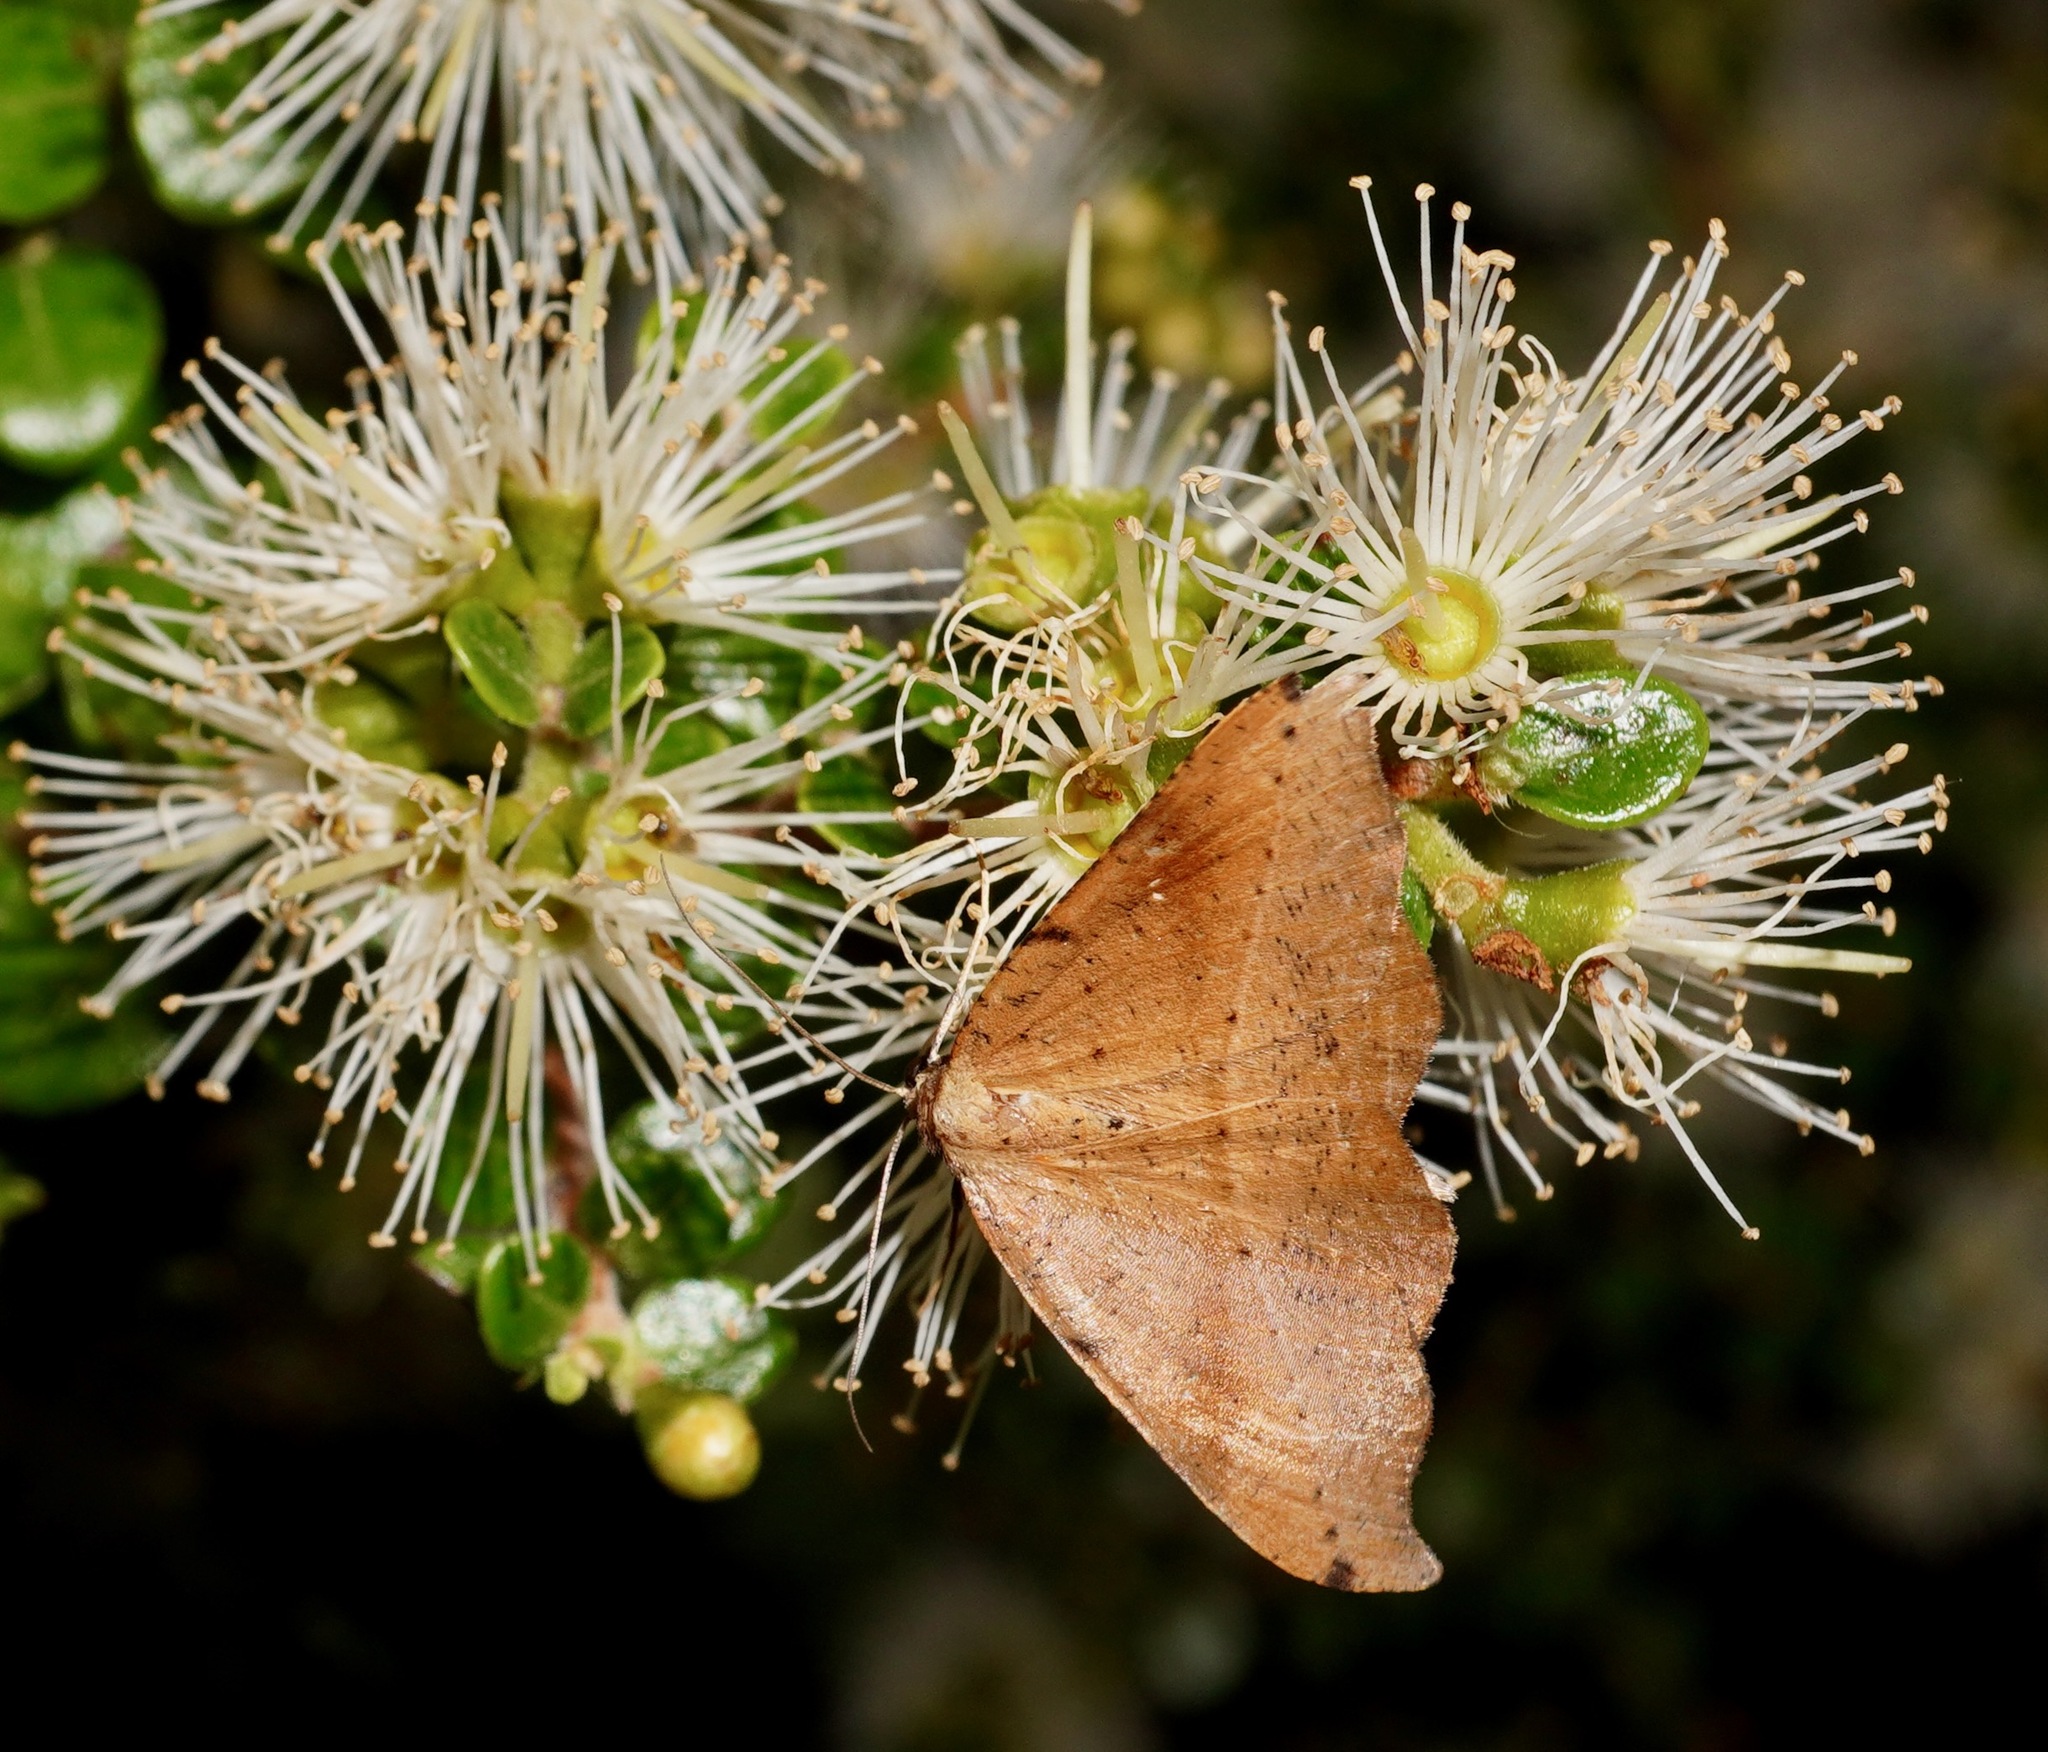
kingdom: Animalia
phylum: Arthropoda
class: Insecta
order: Lepidoptera
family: Geometridae
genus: Sarisa
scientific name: Sarisa muriferata
